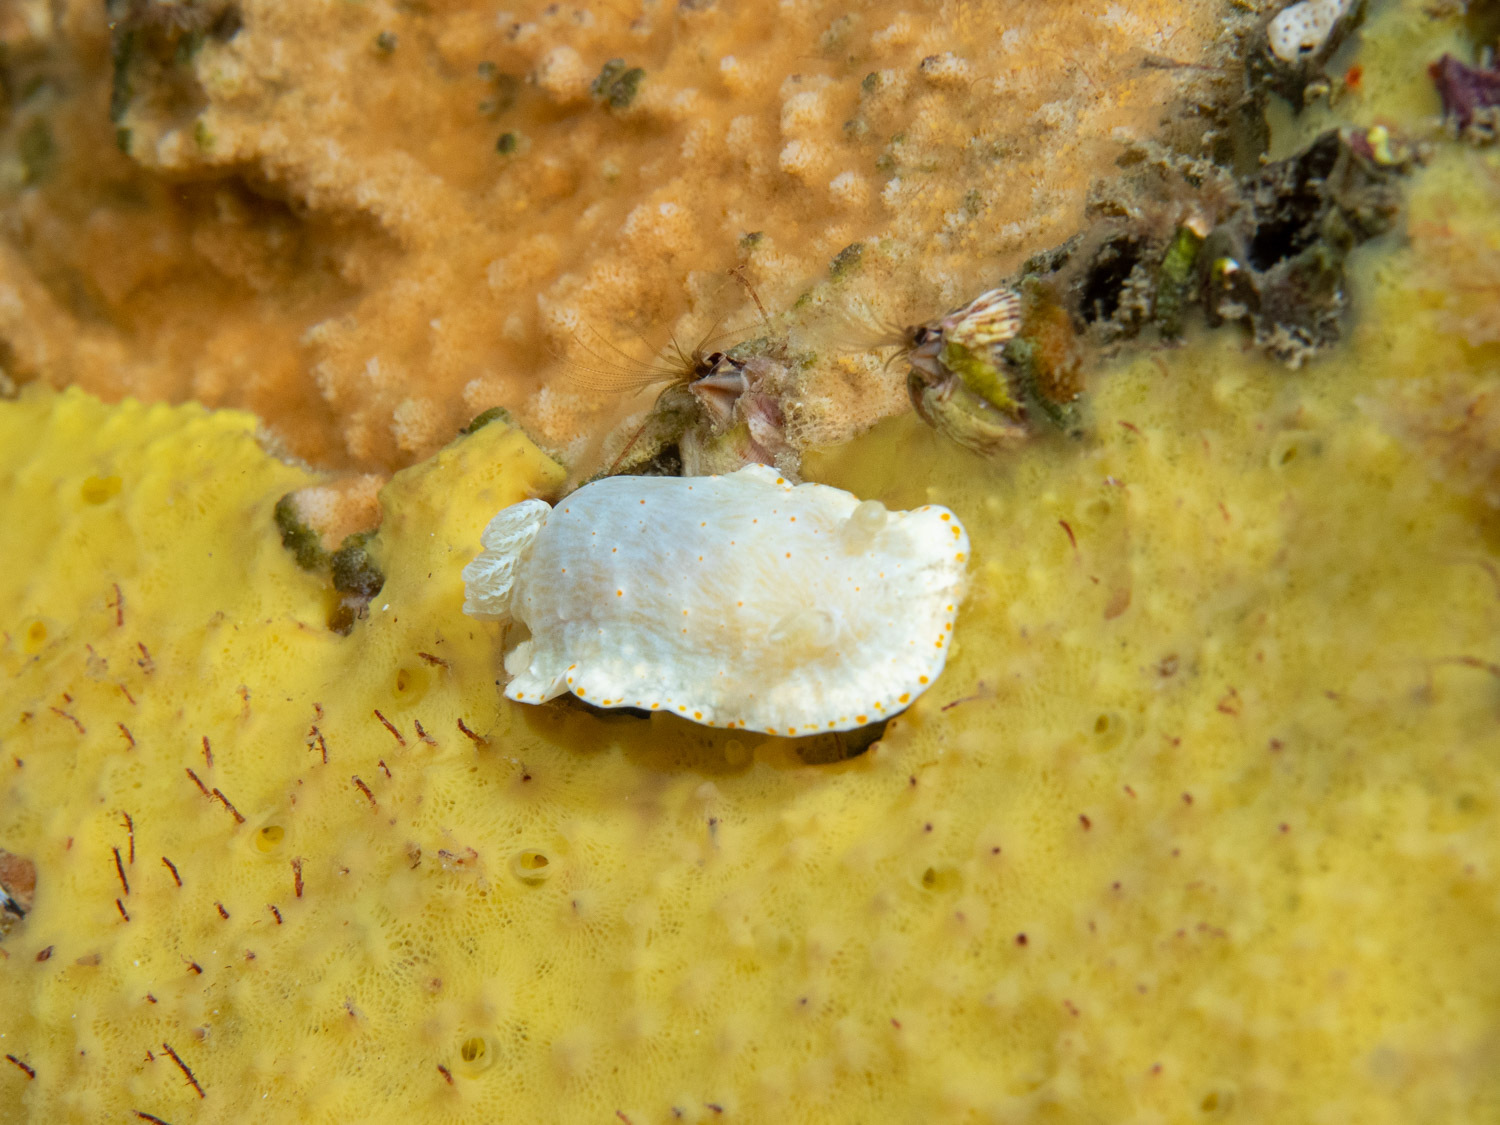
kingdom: Animalia
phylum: Mollusca
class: Gastropoda
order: Nudibranchia
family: Chromodorididae
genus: Goniobranchus
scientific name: Goniobranchus epicurius
